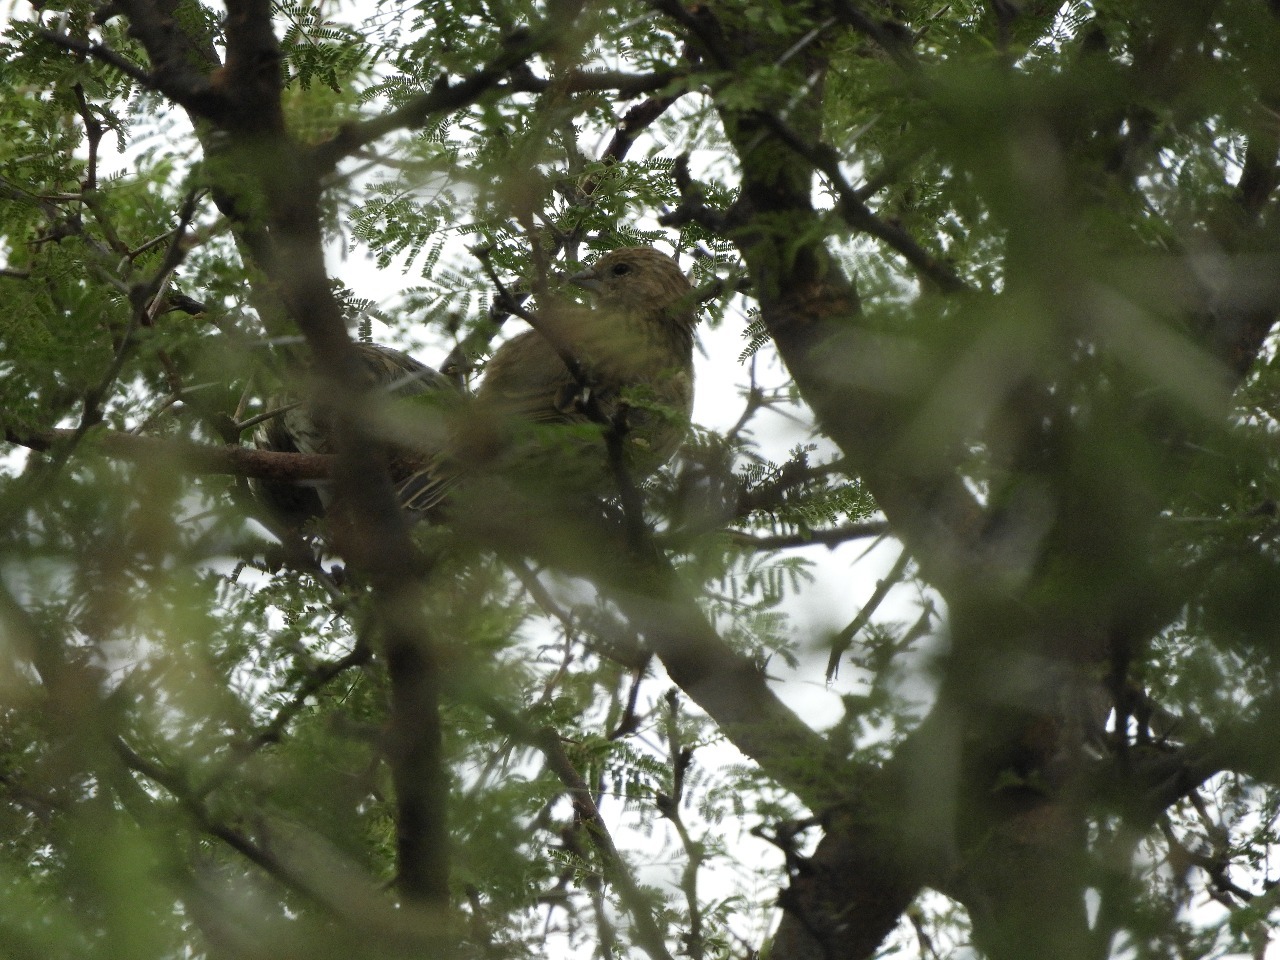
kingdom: Animalia
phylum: Chordata
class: Aves
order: Passeriformes
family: Thraupidae
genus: Sicalis
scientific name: Sicalis flaveola
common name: Saffron finch
